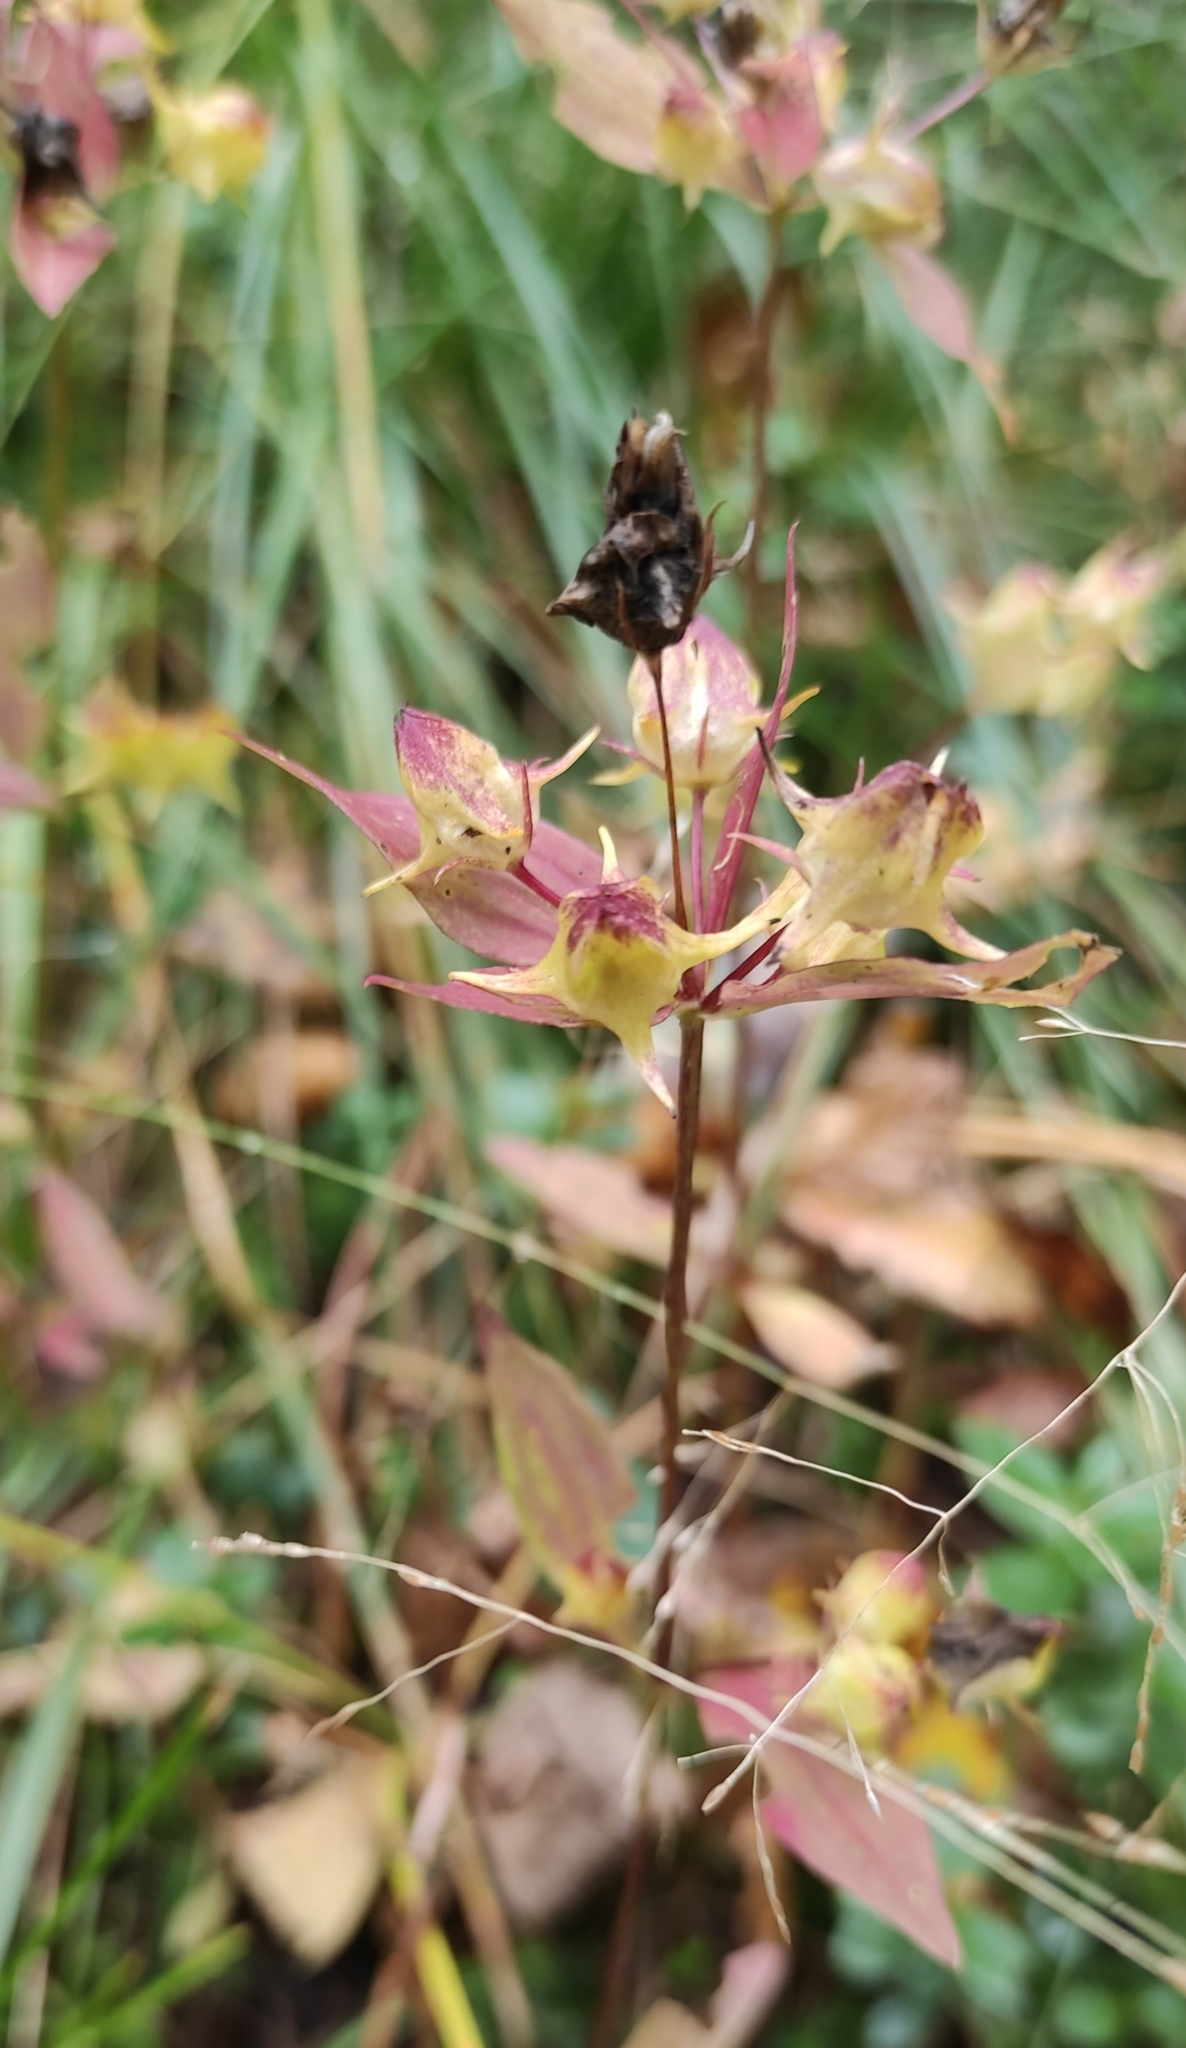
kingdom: Plantae
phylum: Tracheophyta
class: Magnoliopsida
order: Gentianales
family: Gentianaceae
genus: Halenia
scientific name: Halenia corniculata
